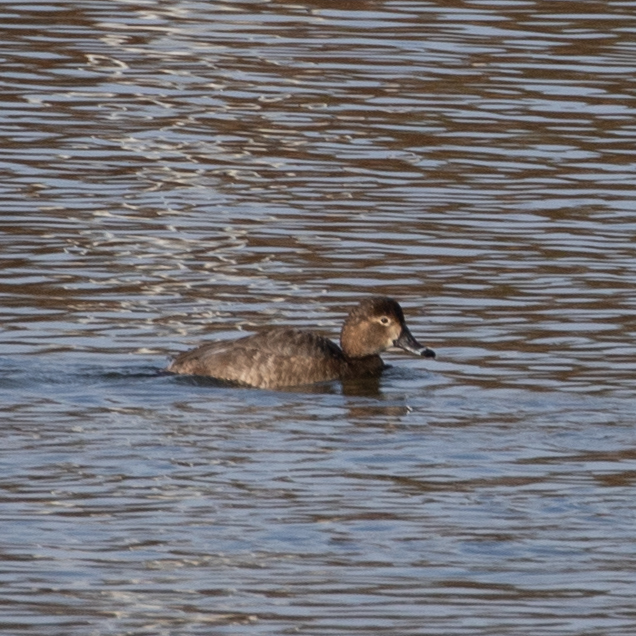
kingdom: Animalia
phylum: Chordata
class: Aves
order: Anseriformes
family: Anatidae
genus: Aythya
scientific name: Aythya americana
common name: Redhead
